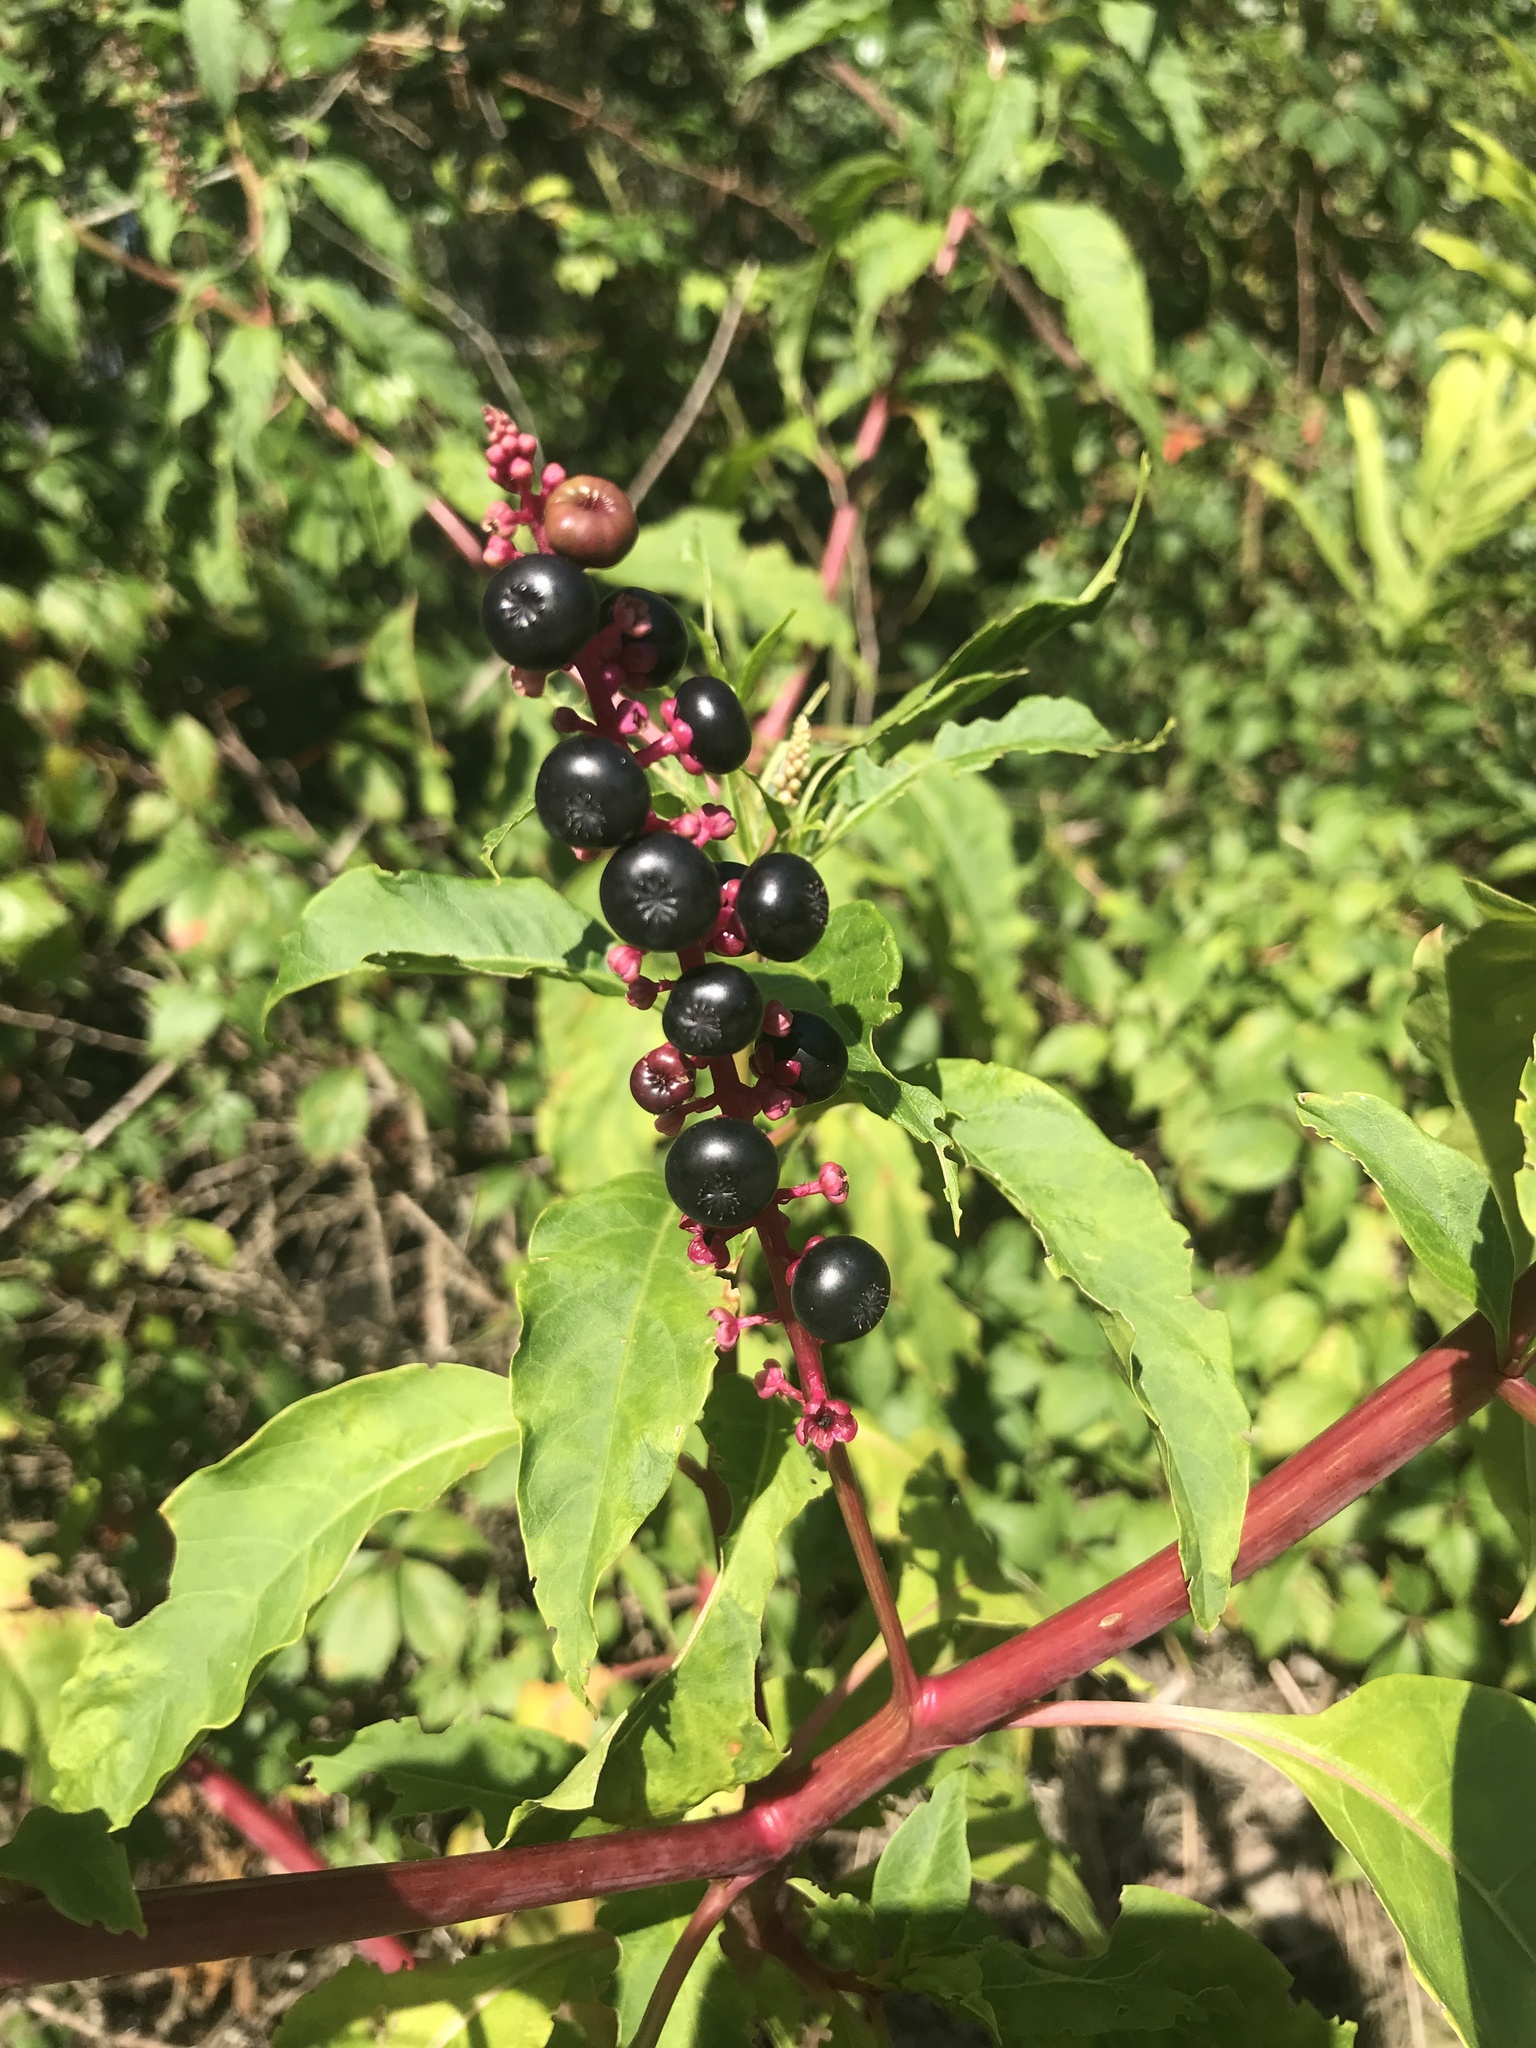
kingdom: Plantae
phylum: Tracheophyta
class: Magnoliopsida
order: Caryophyllales
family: Phytolaccaceae
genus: Phytolacca
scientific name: Phytolacca americana
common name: American pokeweed
